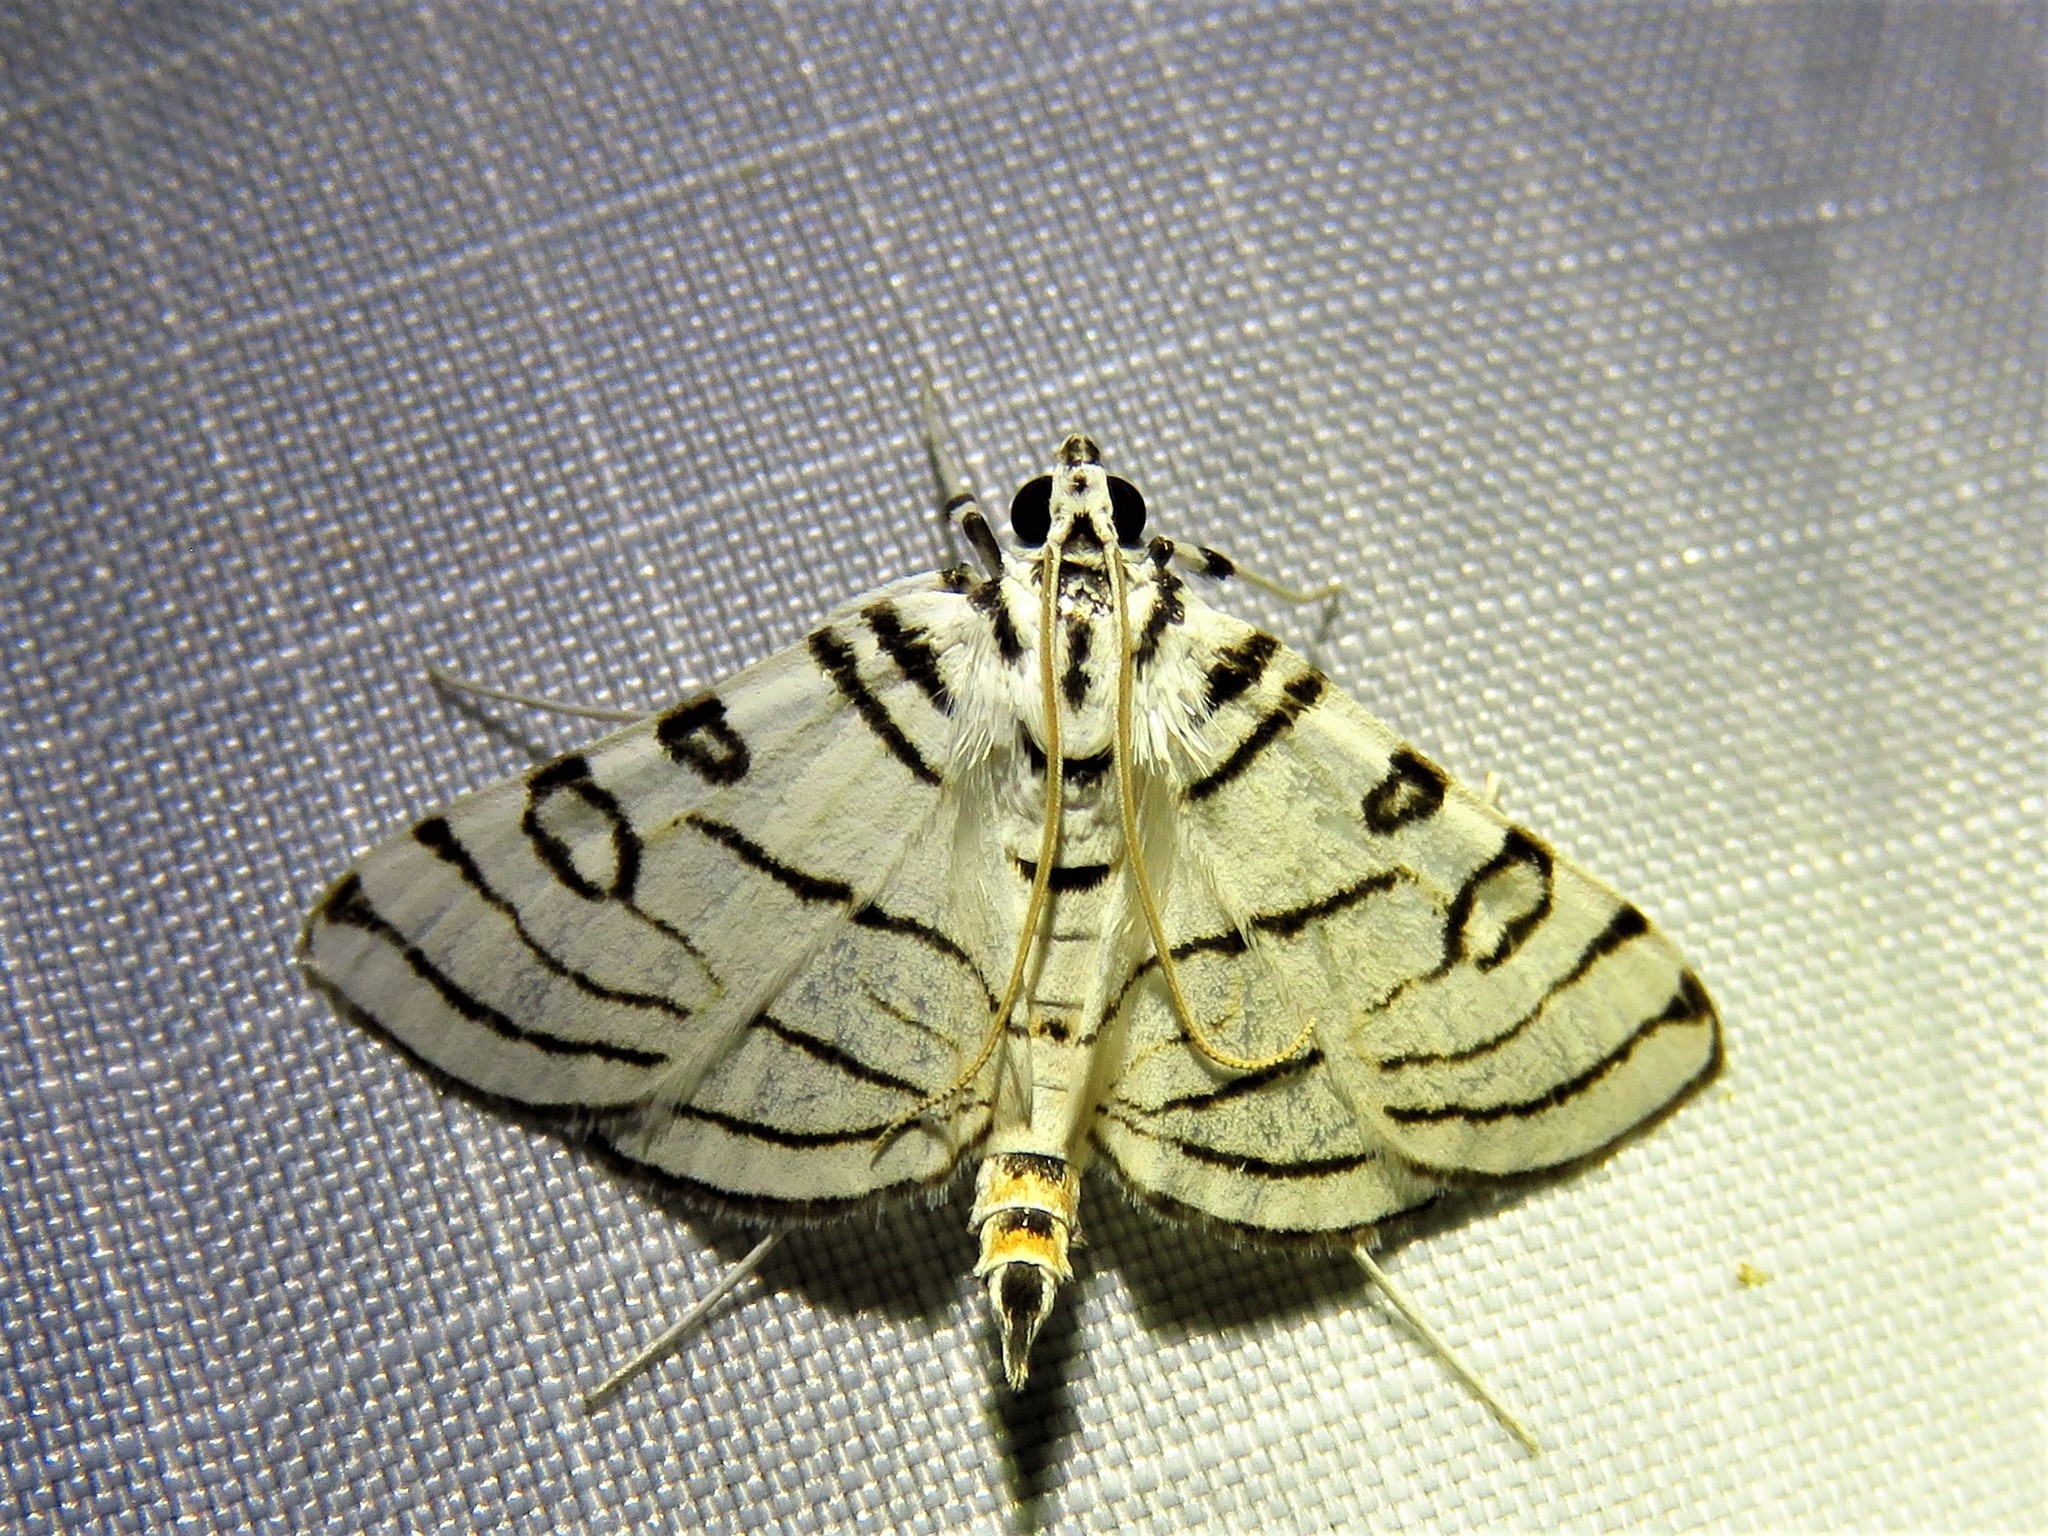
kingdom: Animalia
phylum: Arthropoda
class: Insecta
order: Lepidoptera
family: Crambidae
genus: Conchylodes
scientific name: Conchylodes concinnalis
